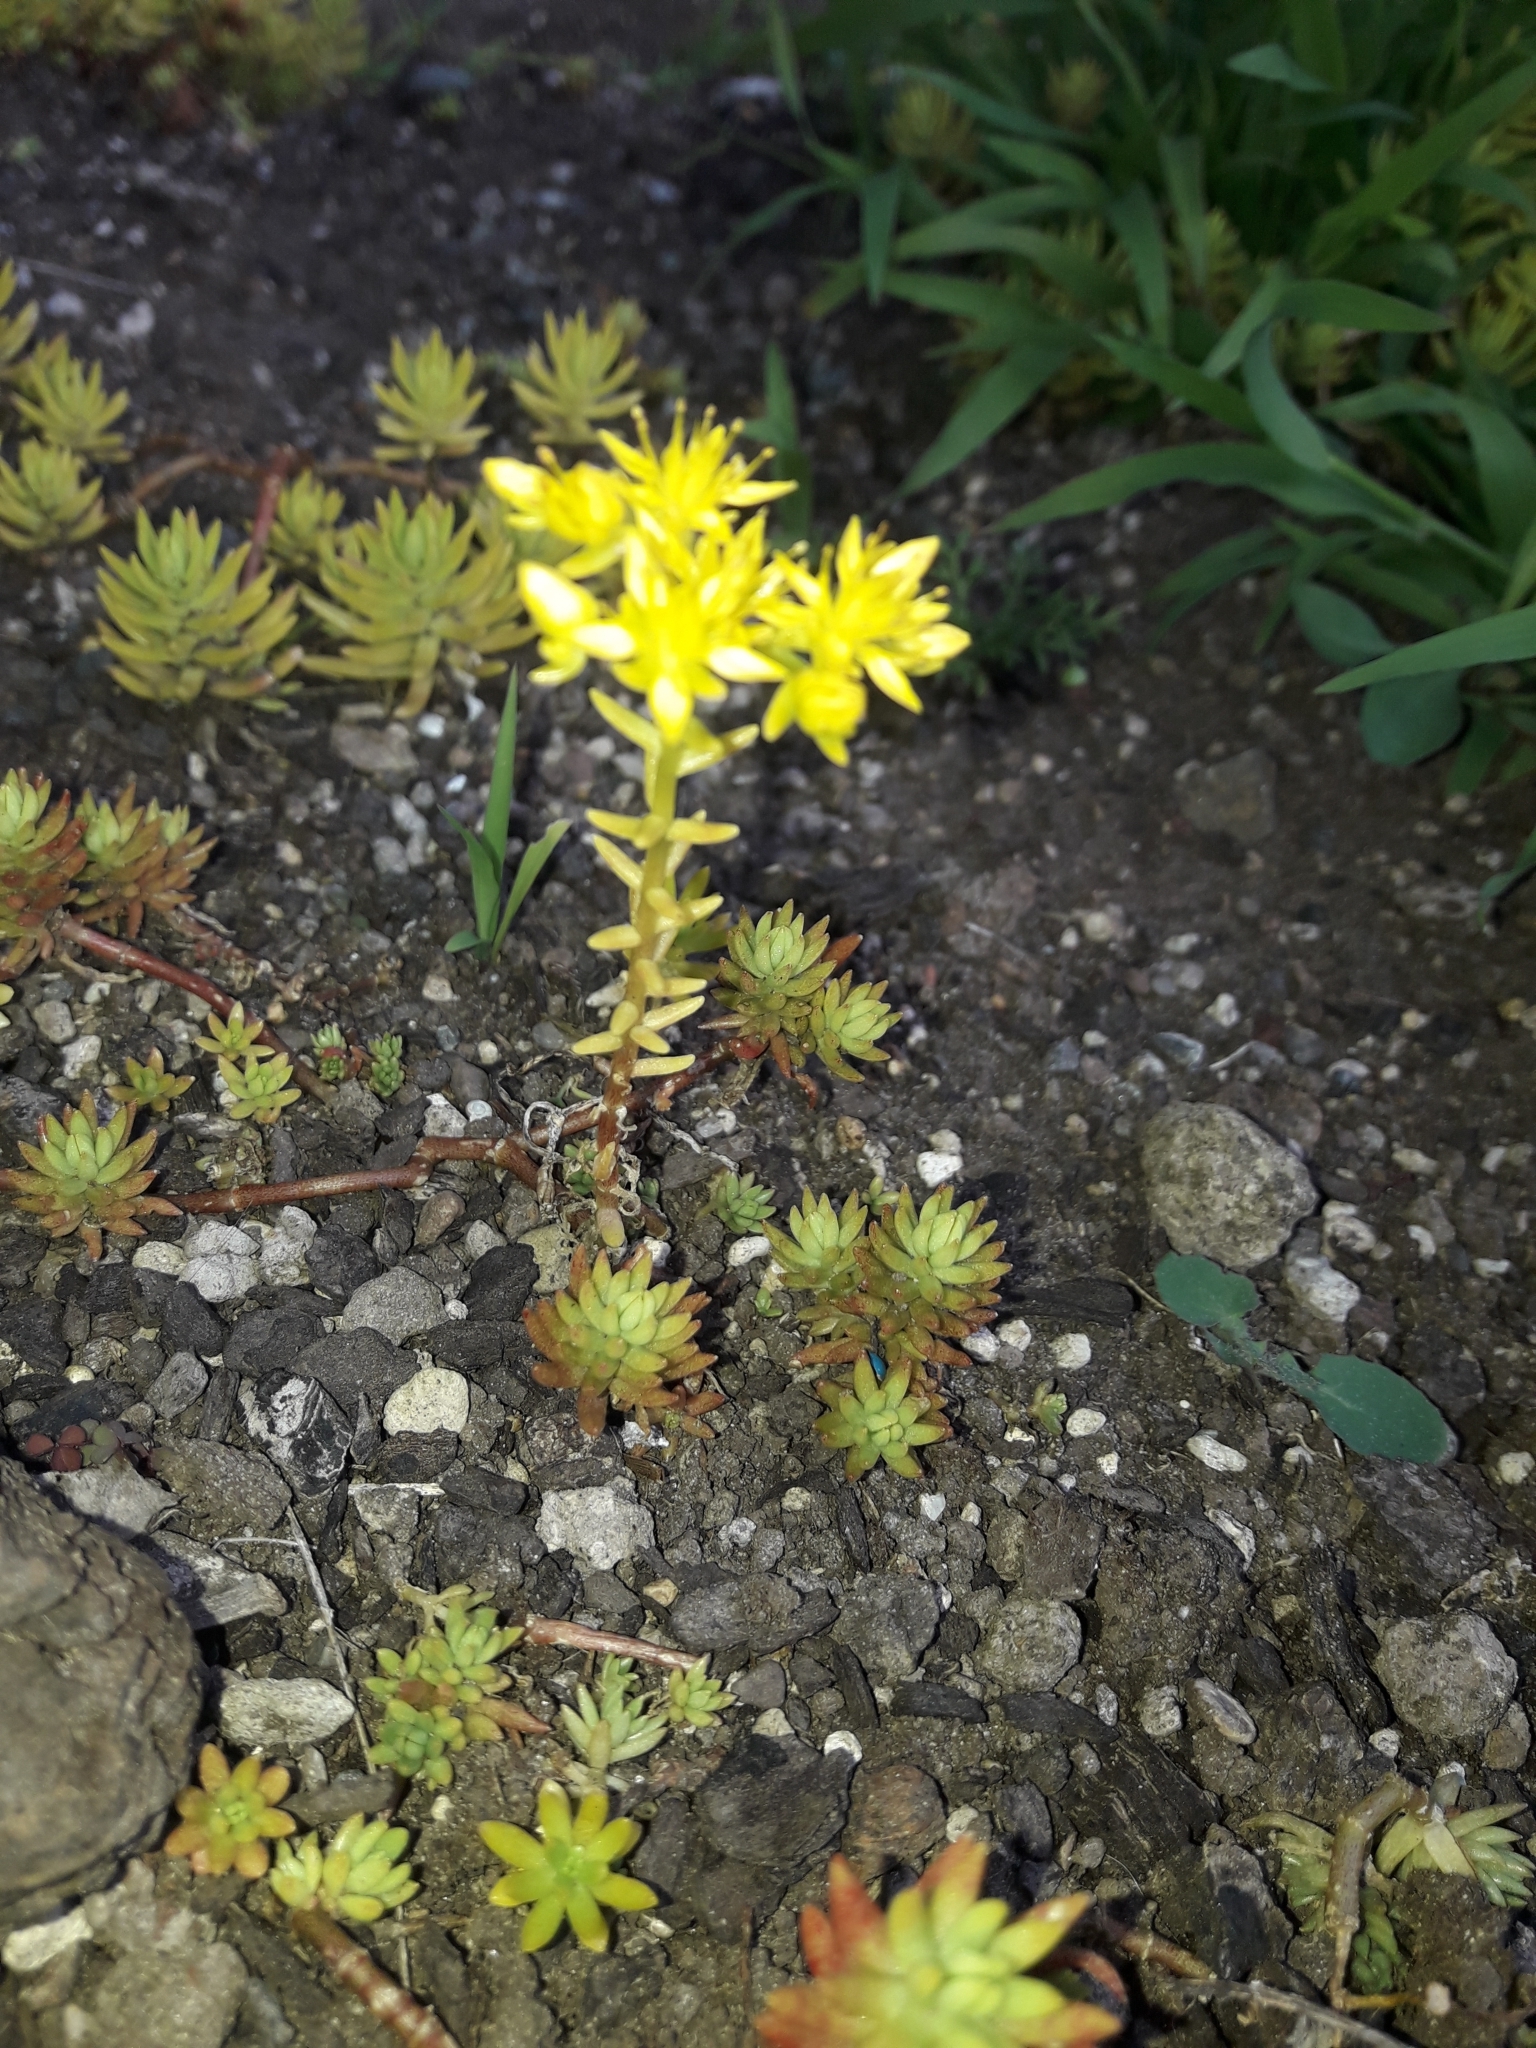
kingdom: Plantae
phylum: Tracheophyta
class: Magnoliopsida
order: Saxifragales
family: Crassulaceae
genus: Sedum
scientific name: Sedum mexicanum
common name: Mexican stonecrop
